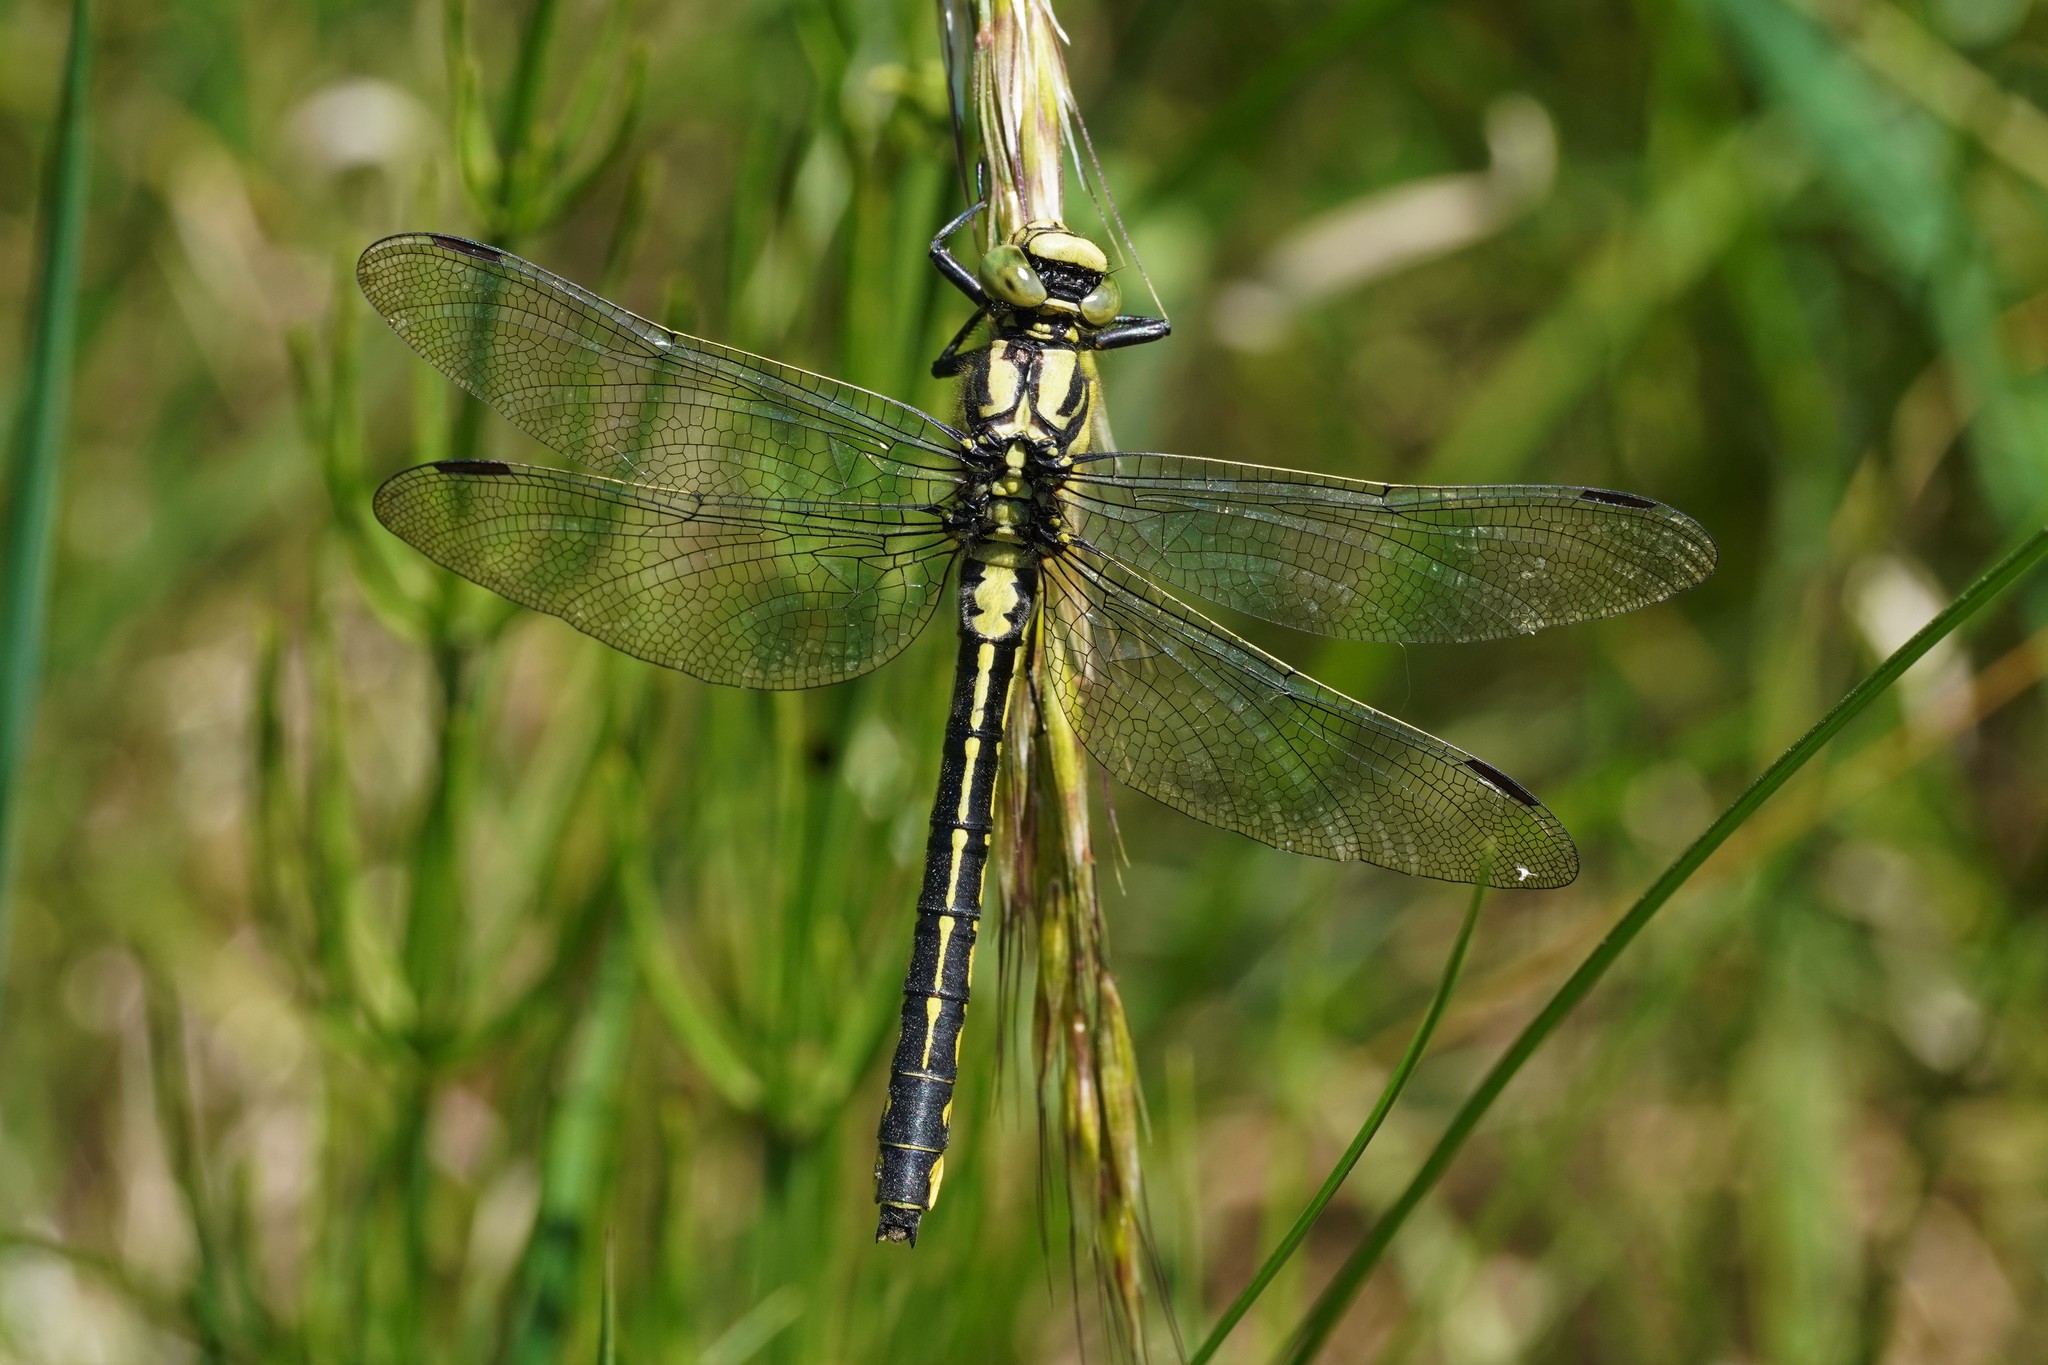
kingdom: Animalia
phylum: Arthropoda
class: Insecta
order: Odonata
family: Gomphidae
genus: Gomphus
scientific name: Gomphus vulgatissimus
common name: Club-tailed dragonfly
